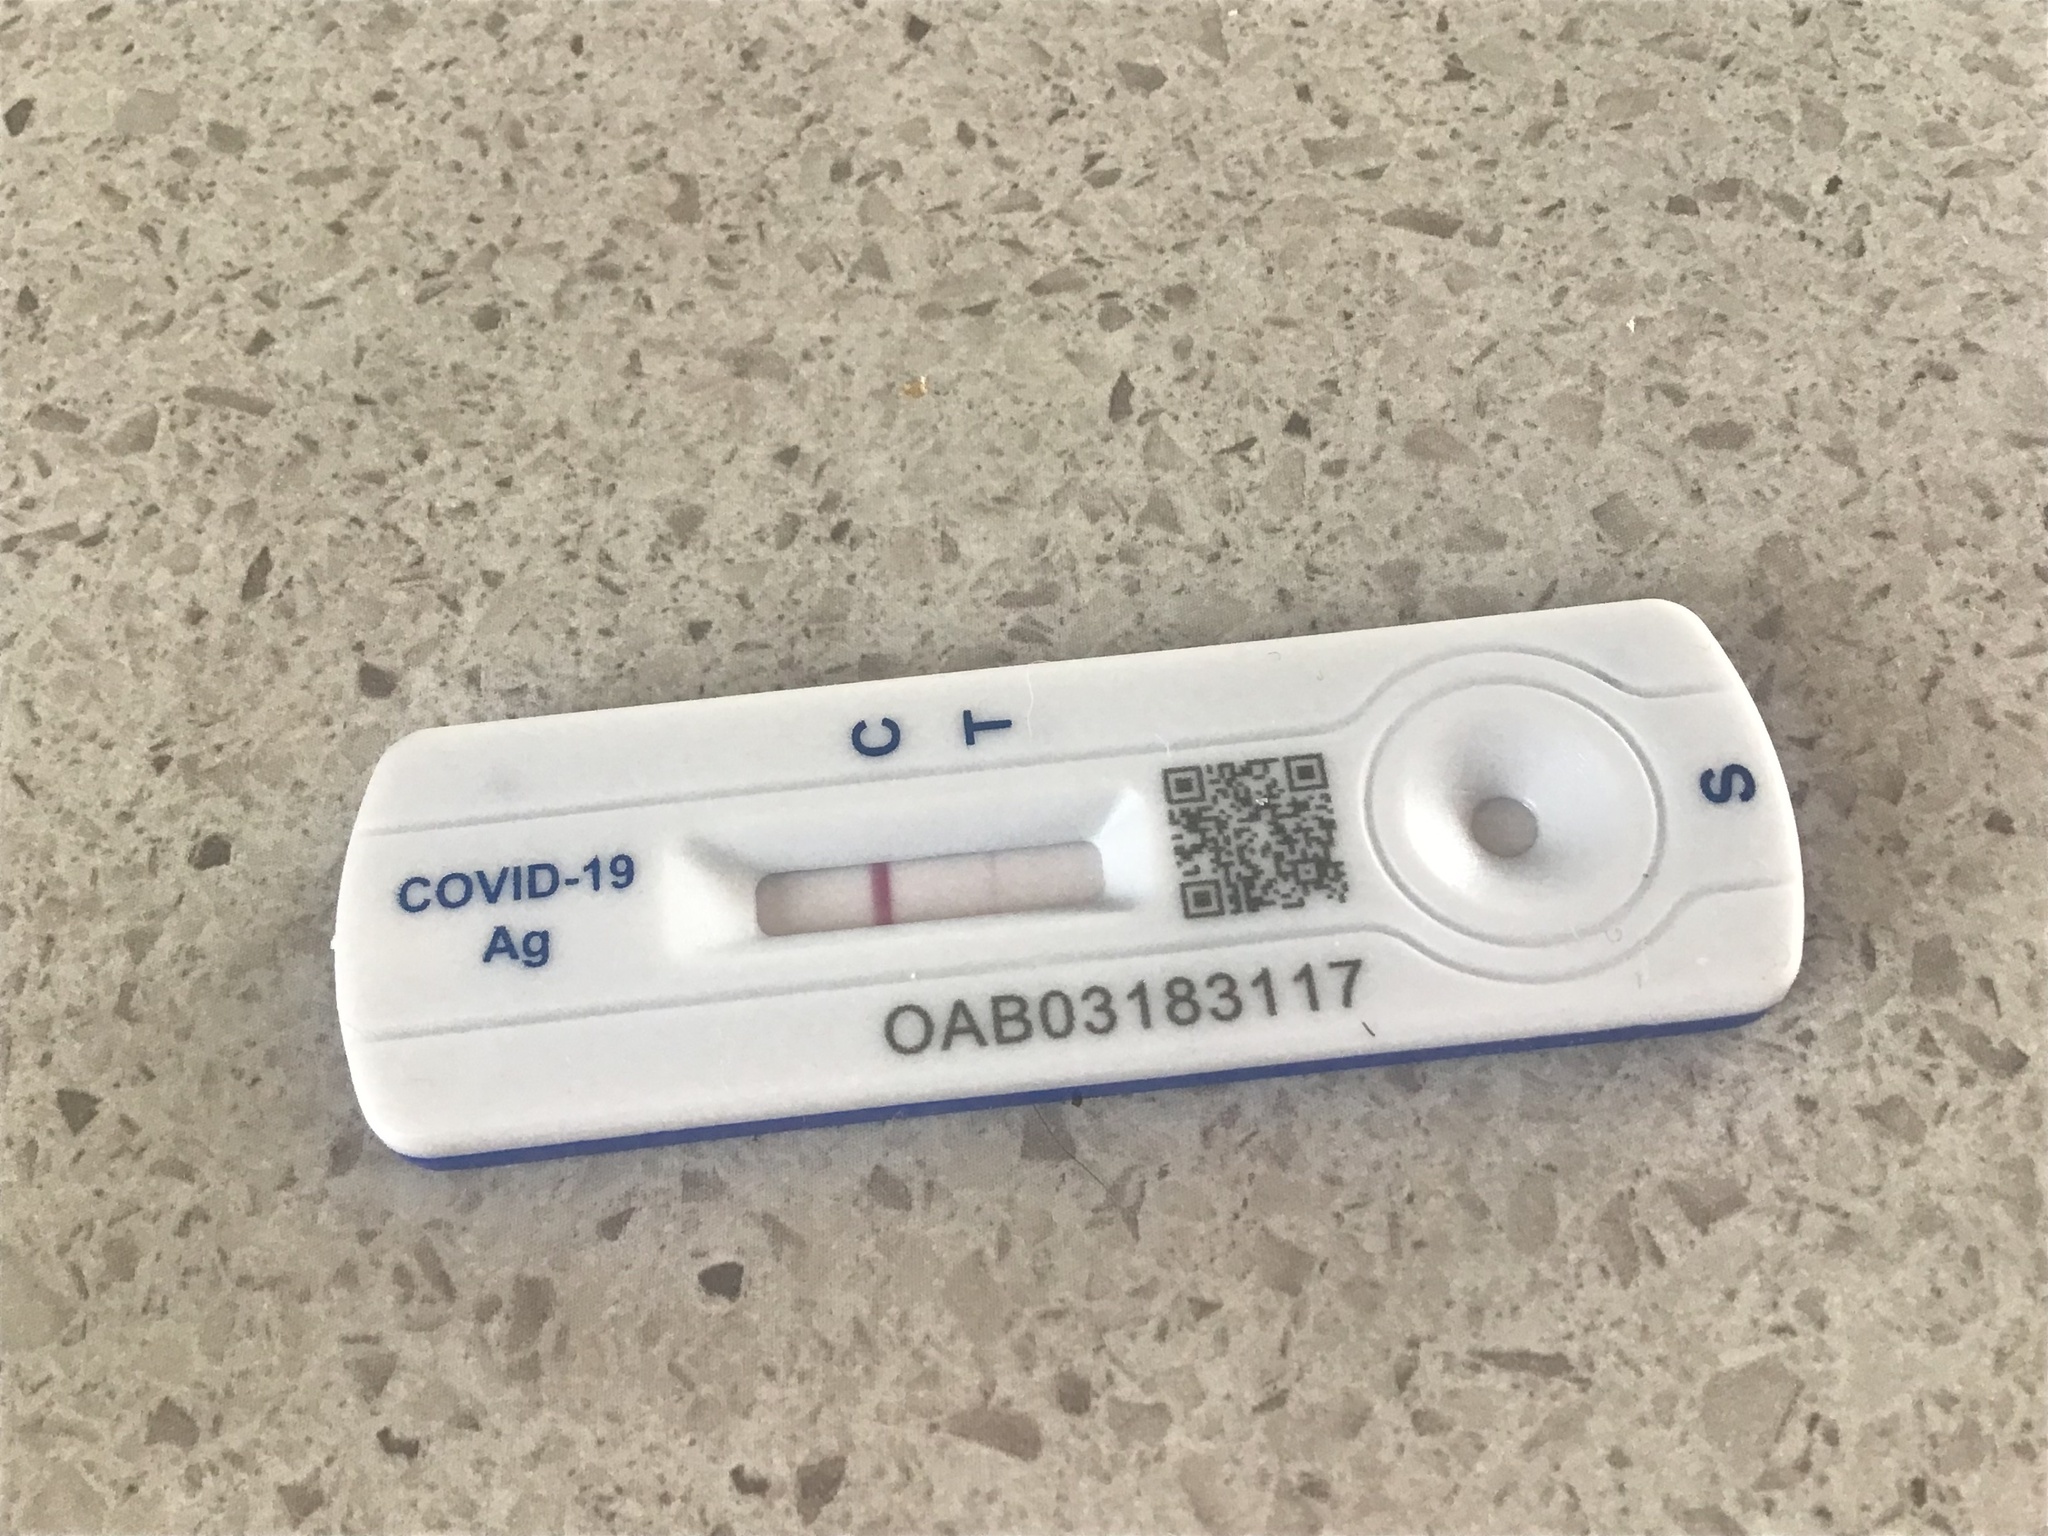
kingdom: Viruses
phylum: Pisuviricota
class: Pisoniviricetes
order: Nidovirales
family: Coronaviridae
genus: Betacoronavirus
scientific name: Betacoronavirus
